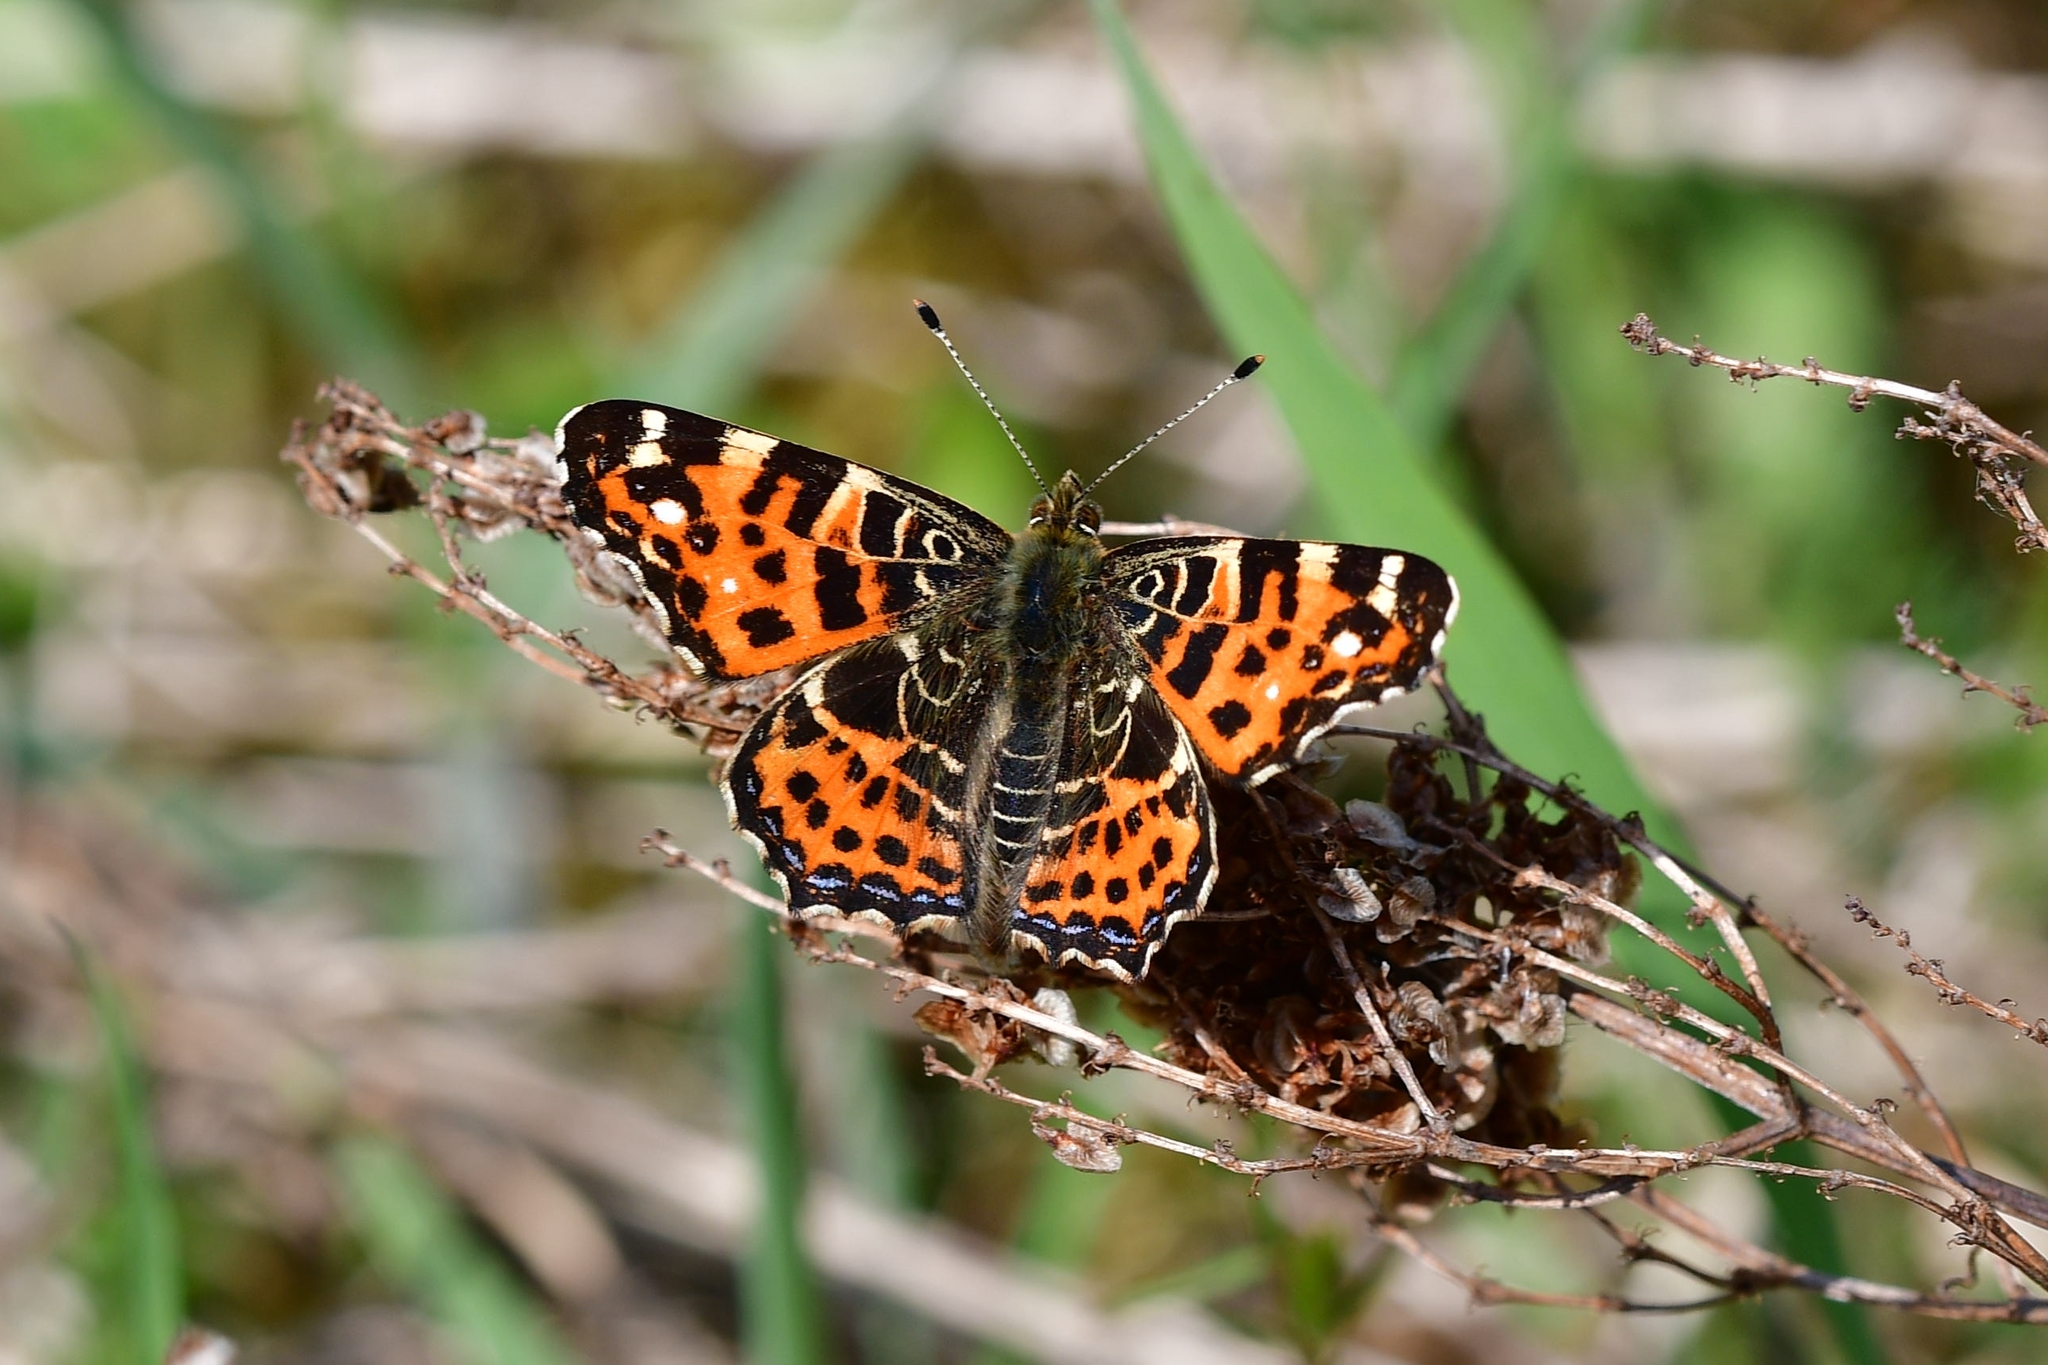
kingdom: Animalia
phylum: Arthropoda
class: Insecta
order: Lepidoptera
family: Nymphalidae
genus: Araschnia
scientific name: Araschnia levana
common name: Map butterfly
